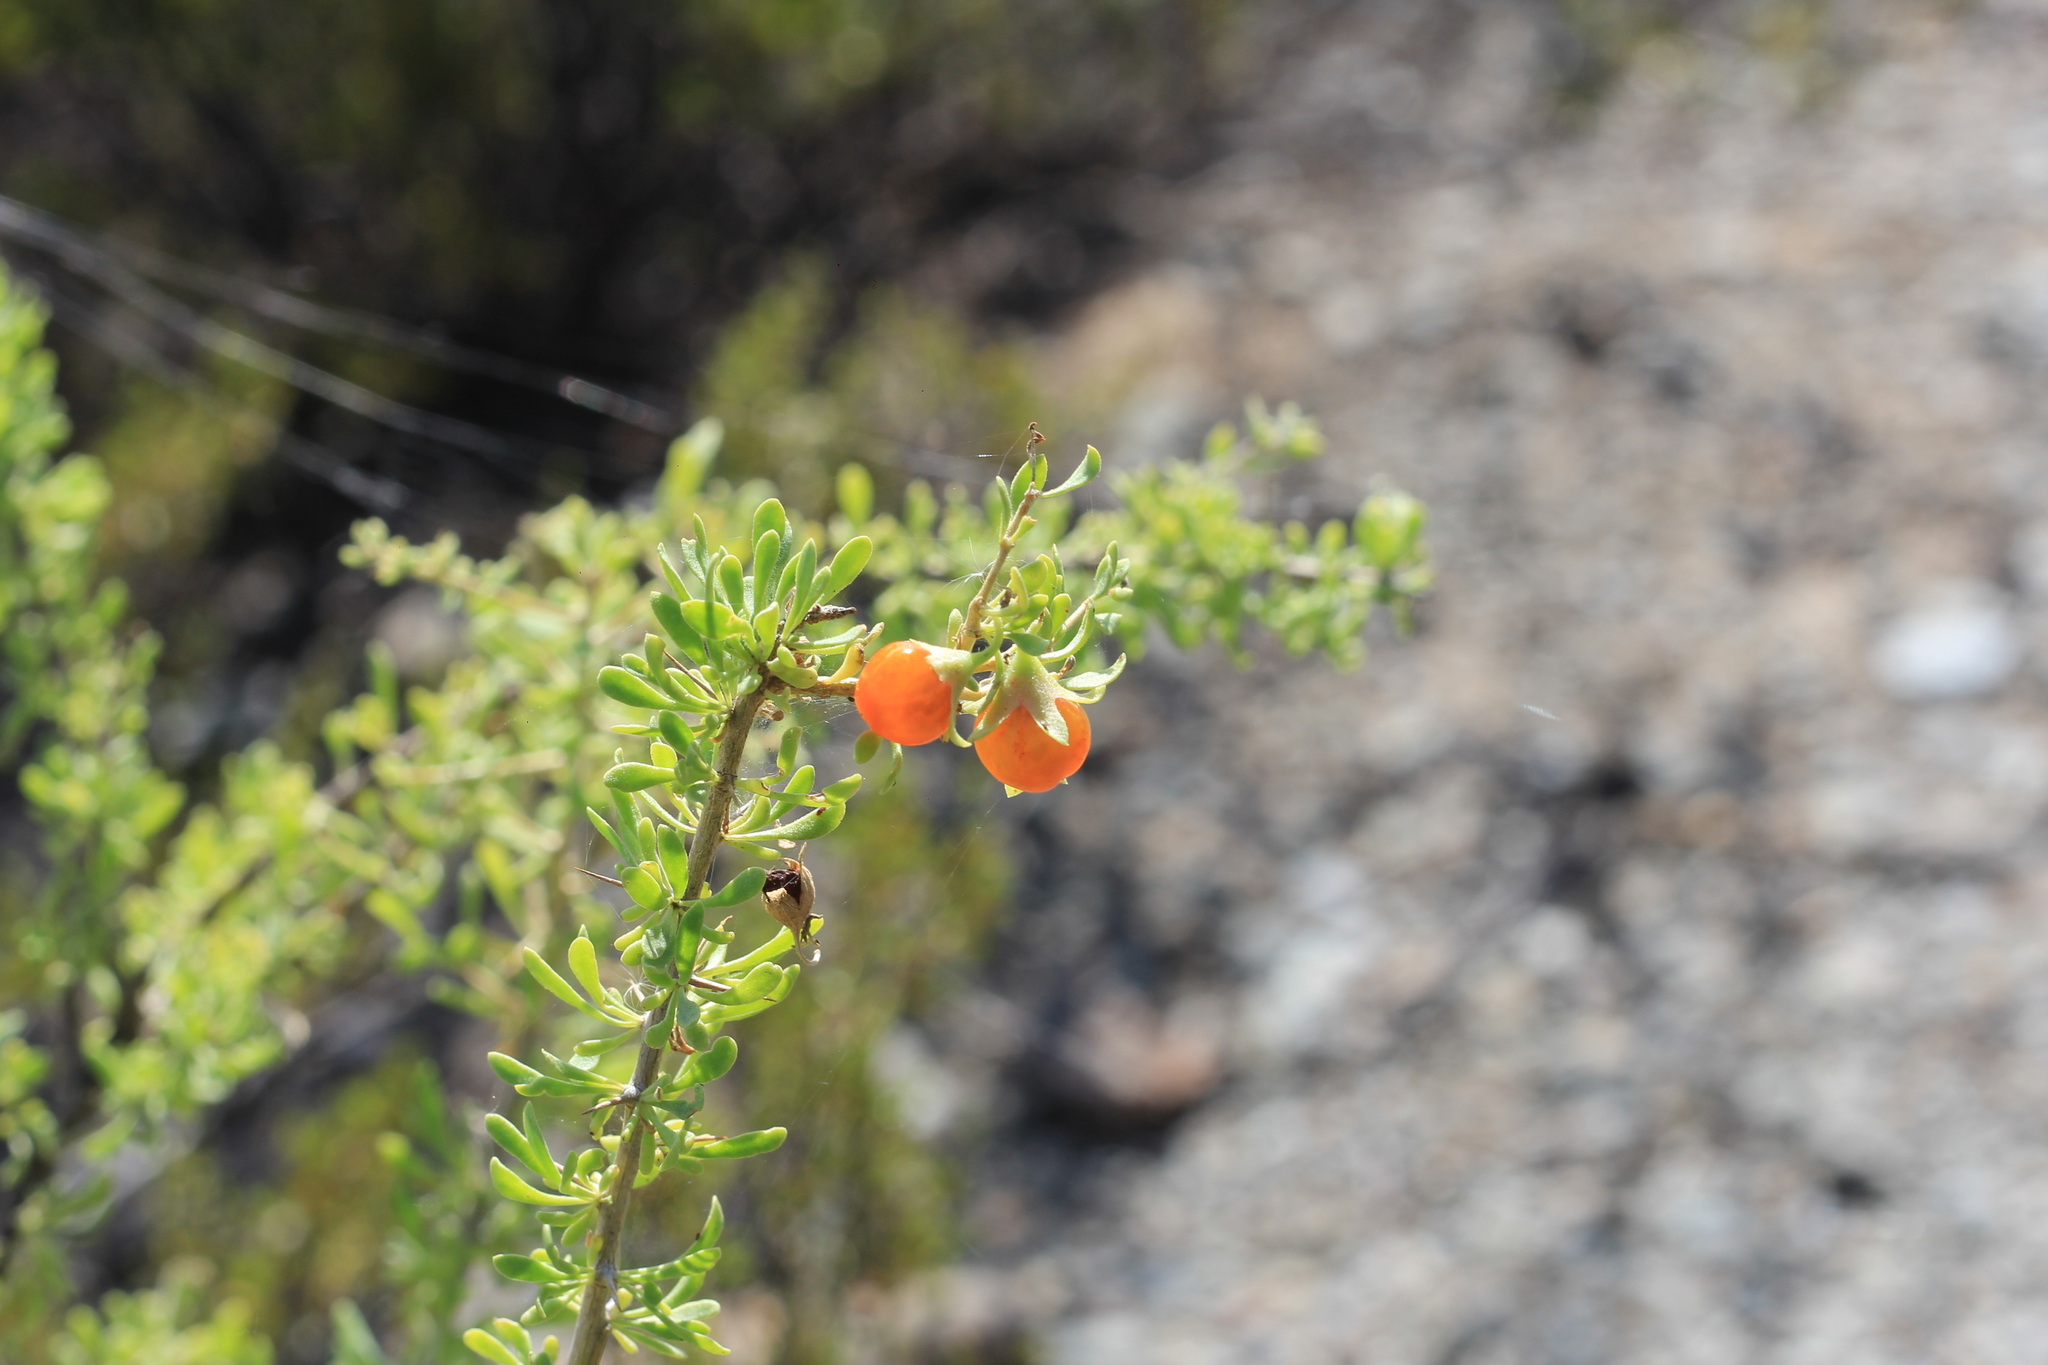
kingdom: Plantae
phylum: Tracheophyta
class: Magnoliopsida
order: Solanales
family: Solanaceae
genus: Lycium
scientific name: Lycium tenuispinosum
